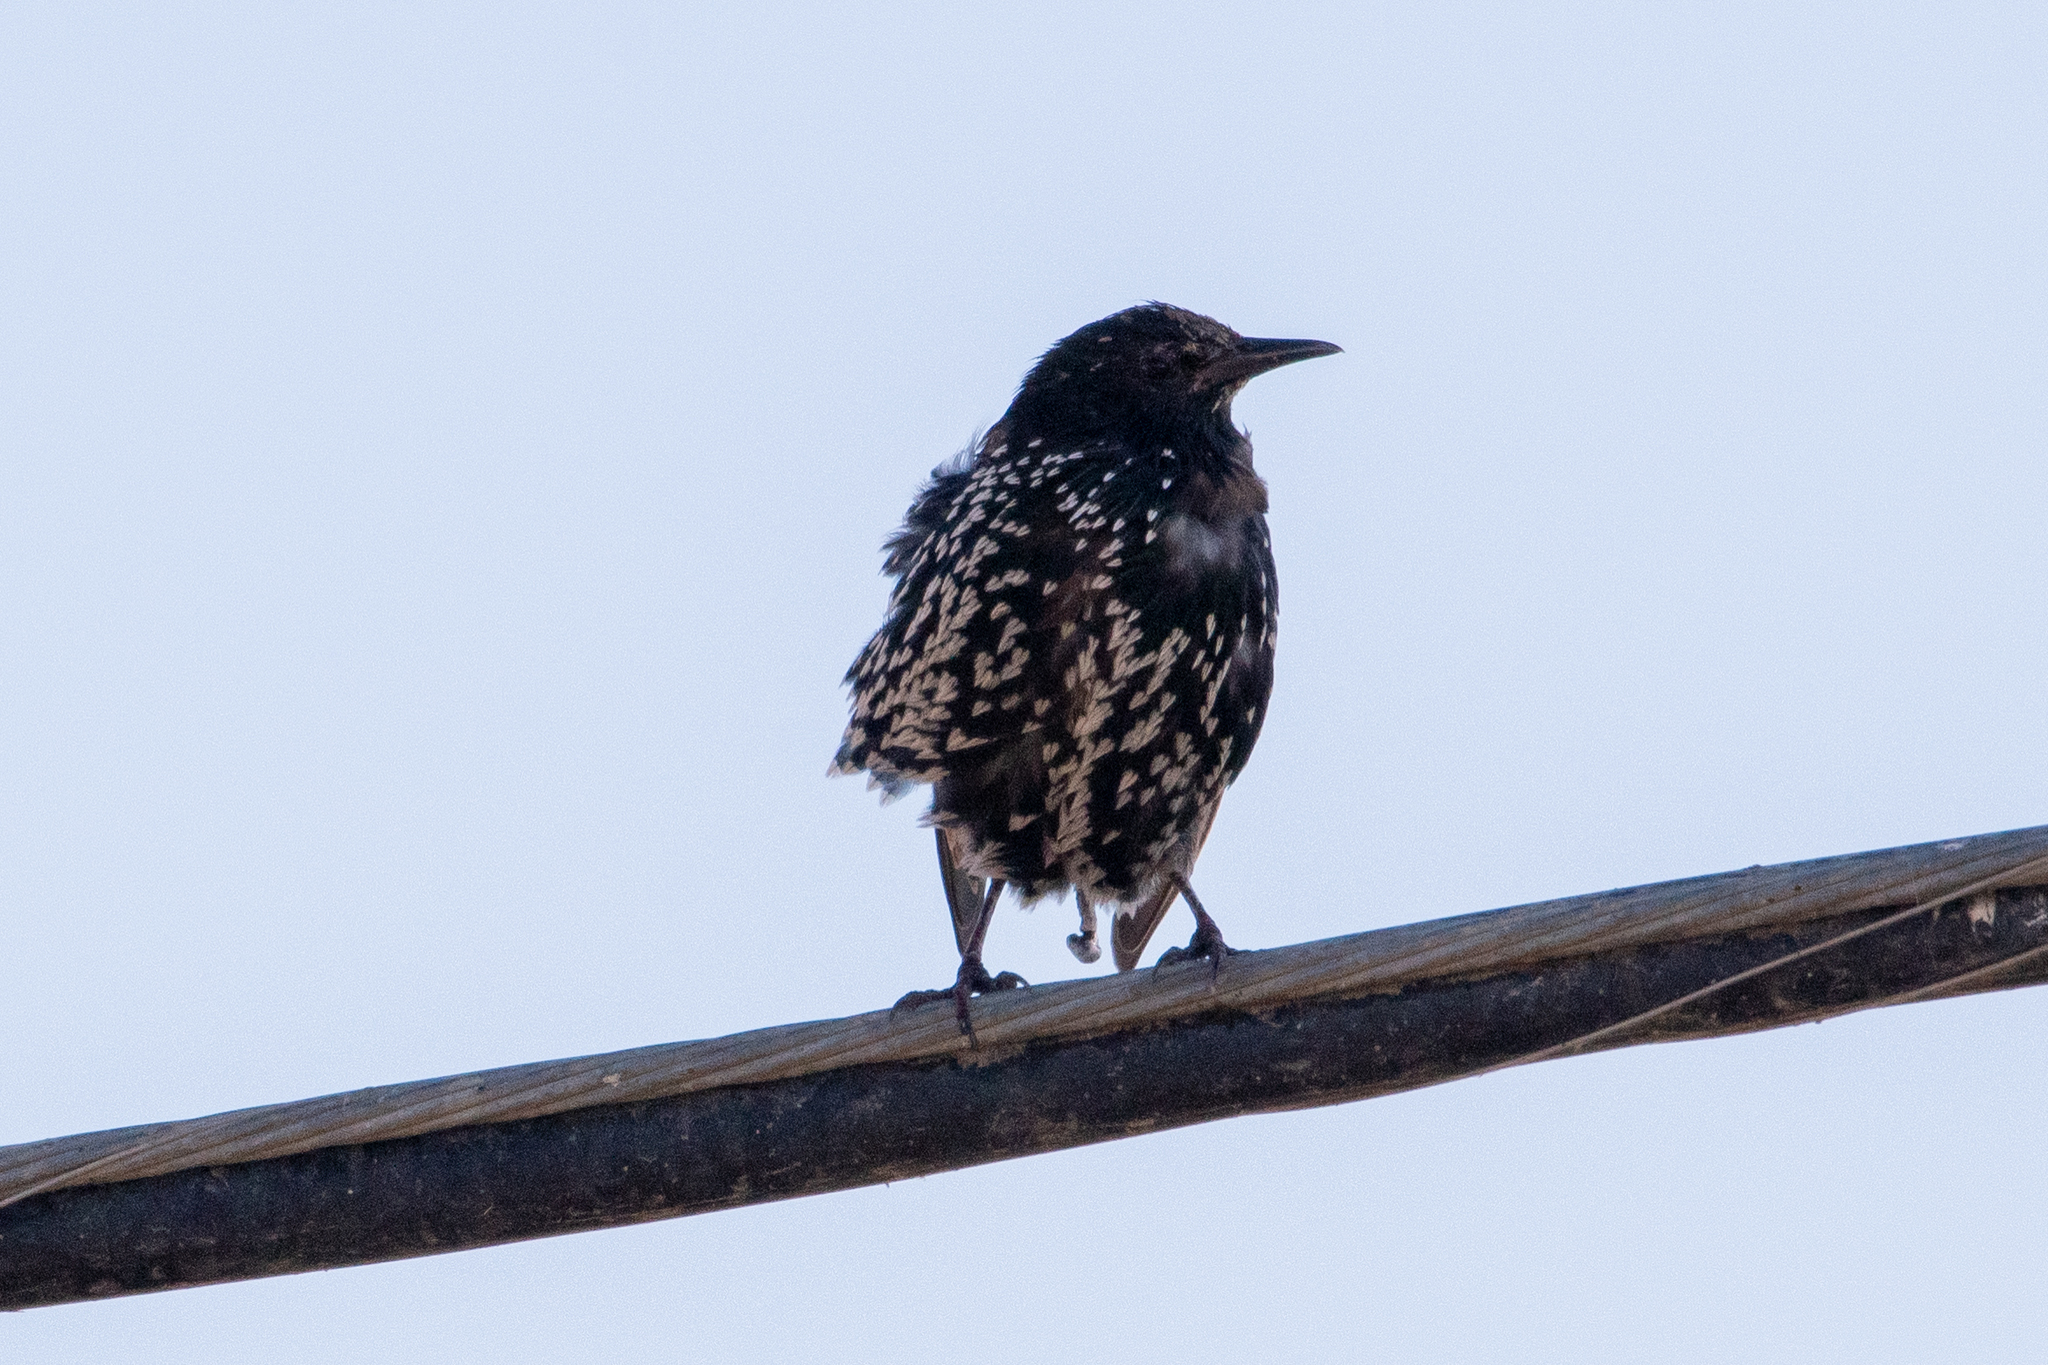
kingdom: Animalia
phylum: Chordata
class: Aves
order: Passeriformes
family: Sturnidae
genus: Sturnus
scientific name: Sturnus vulgaris
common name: Common starling
